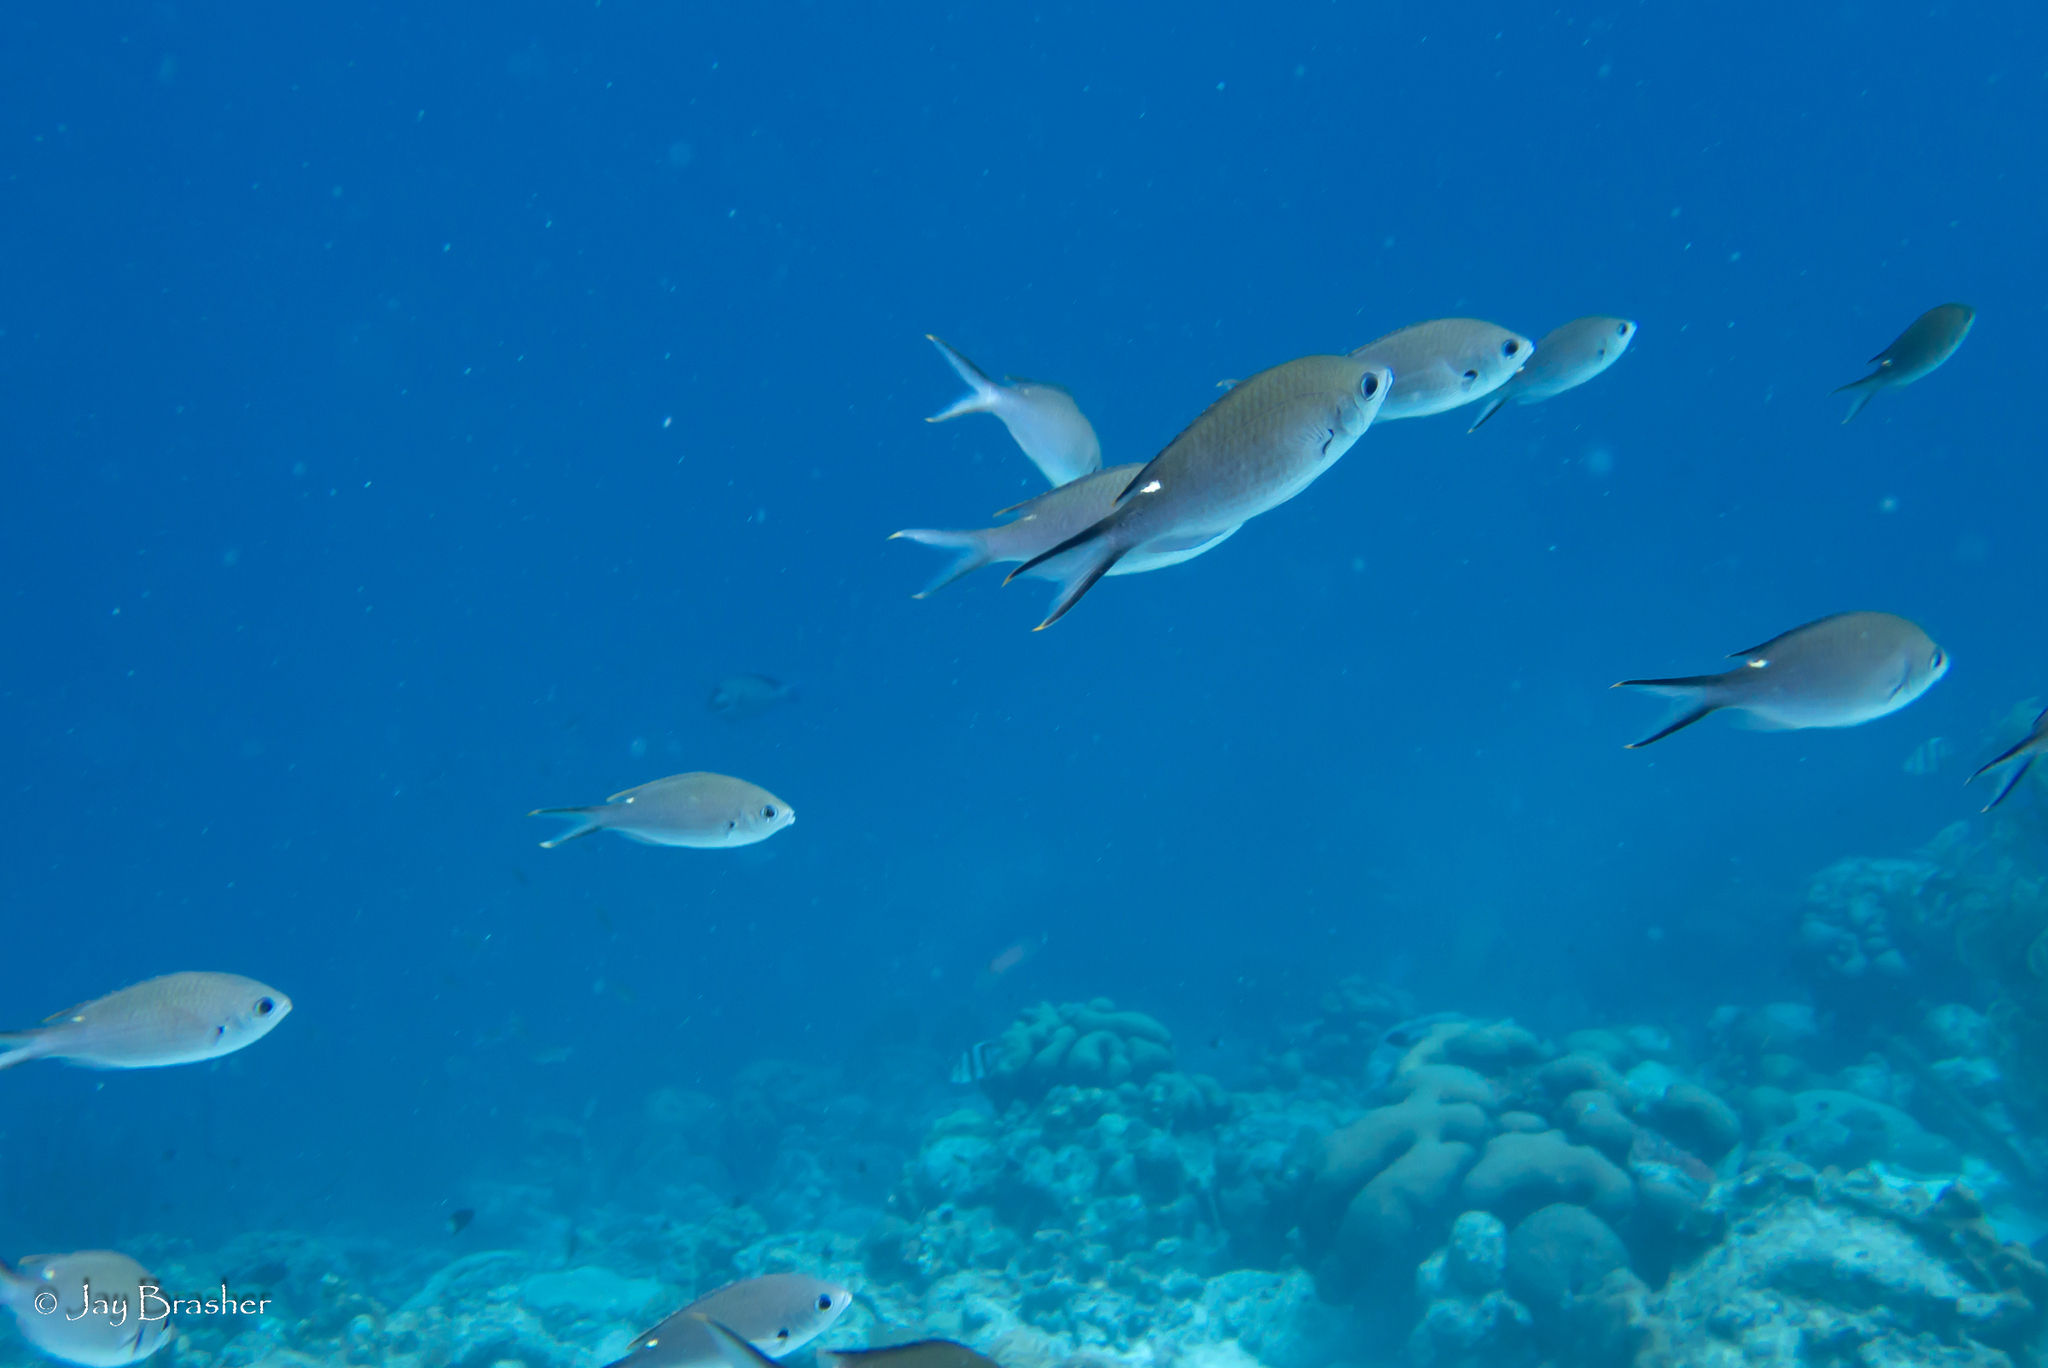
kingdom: Animalia
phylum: Chordata
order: Perciformes
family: Pomacentridae
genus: Chromis
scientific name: Chromis multilineata
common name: Brown chromis
